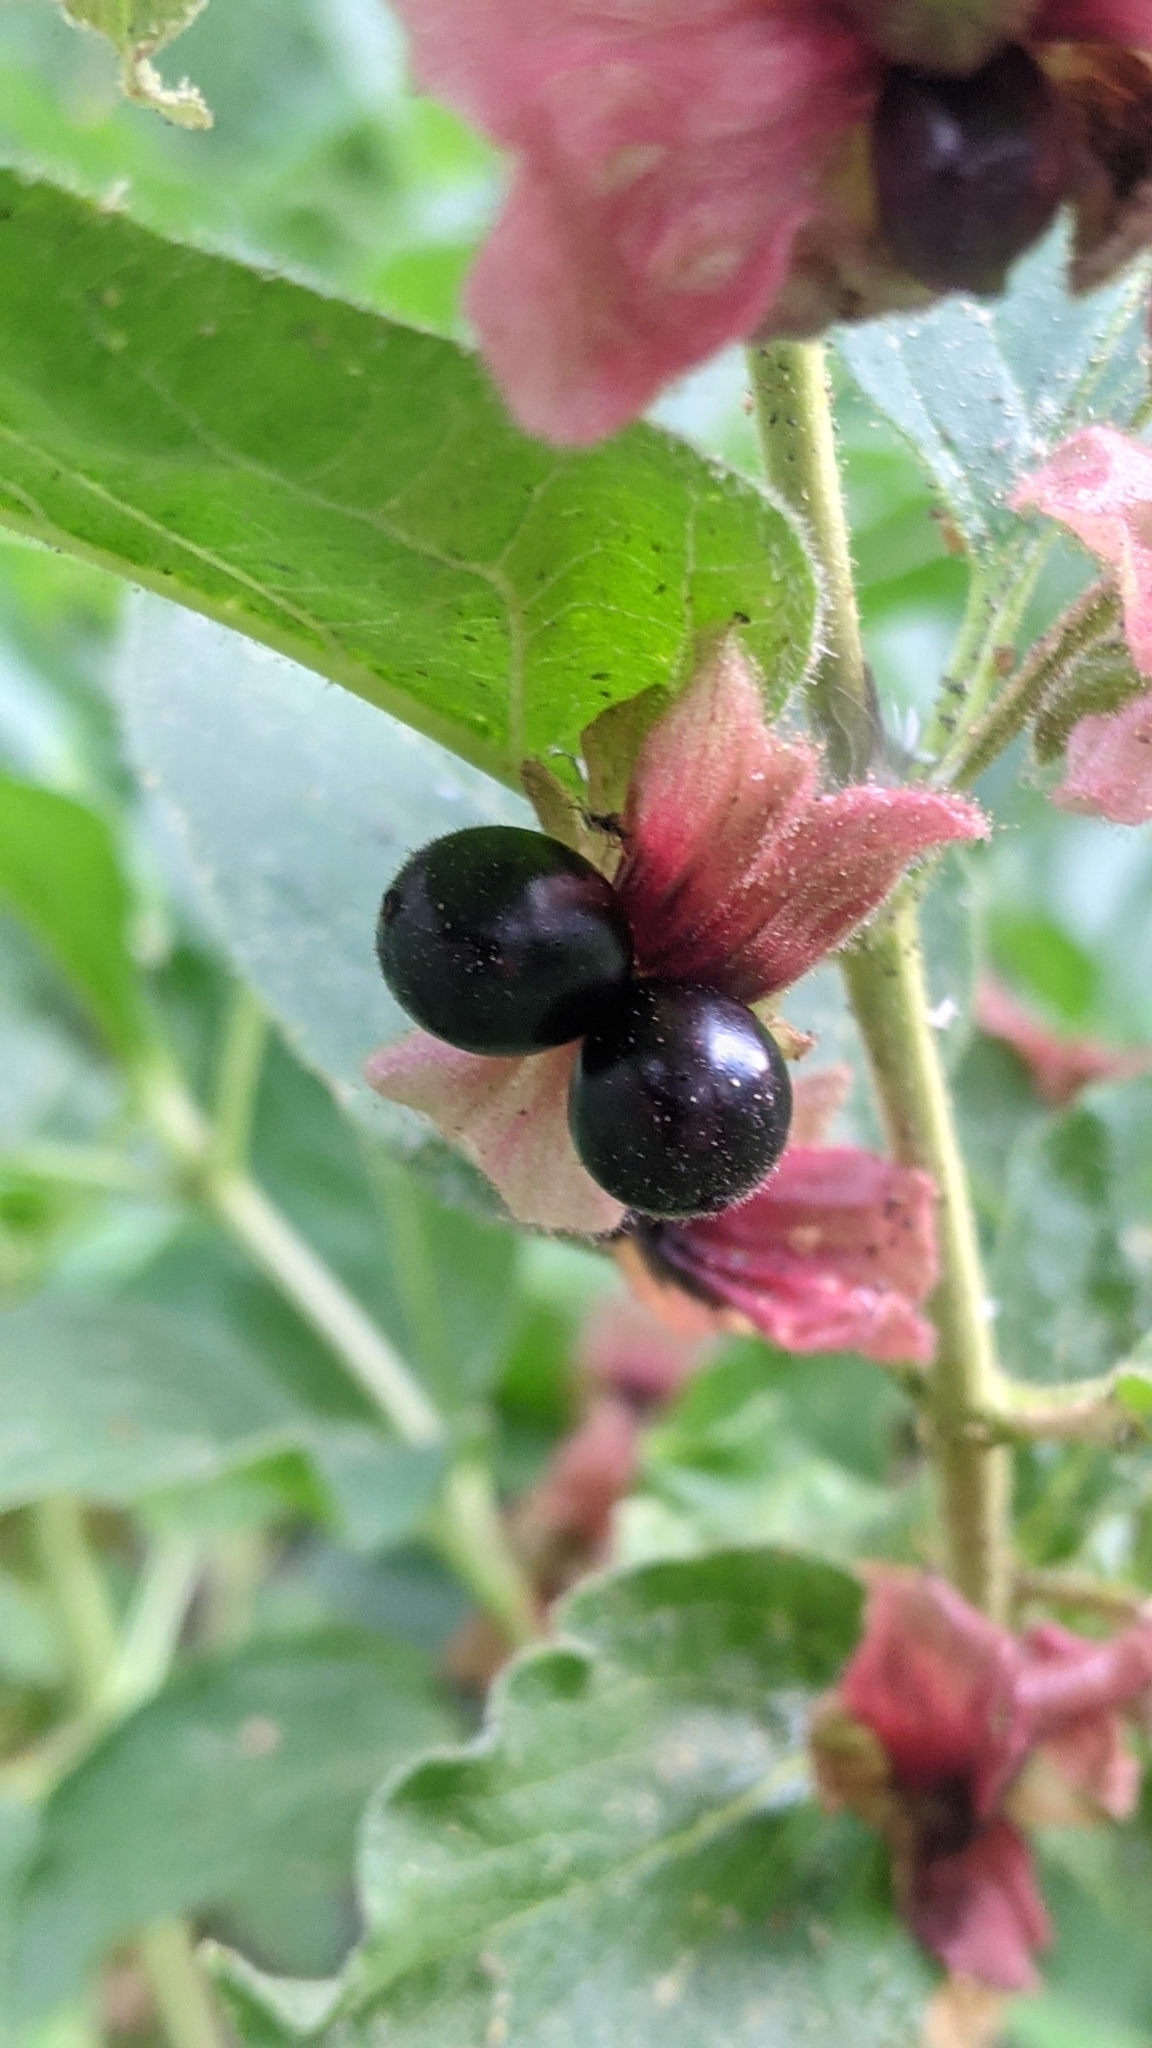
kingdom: Plantae
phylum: Tracheophyta
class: Magnoliopsida
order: Dipsacales
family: Caprifoliaceae
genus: Lonicera
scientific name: Lonicera involucrata
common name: Californian honeysuckle
